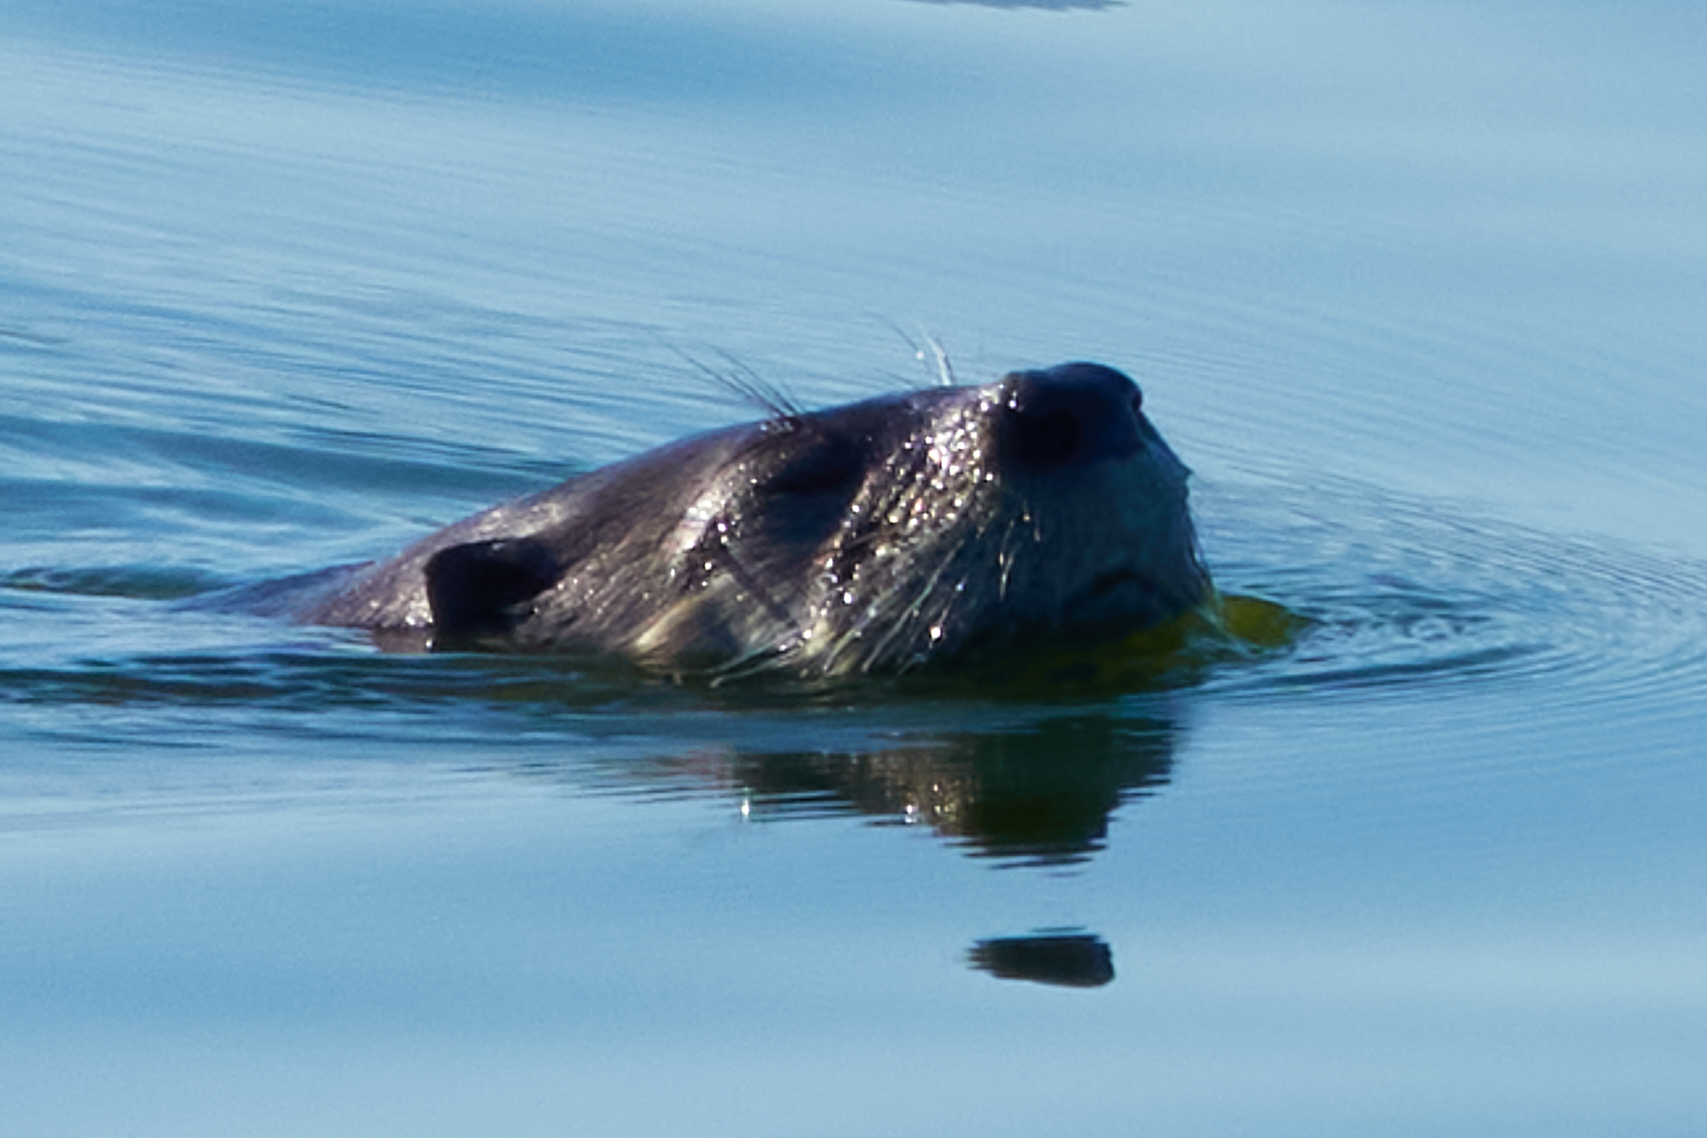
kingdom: Animalia
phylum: Chordata
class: Mammalia
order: Carnivora
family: Mustelidae
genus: Lontra
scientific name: Lontra canadensis
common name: North american river otter
